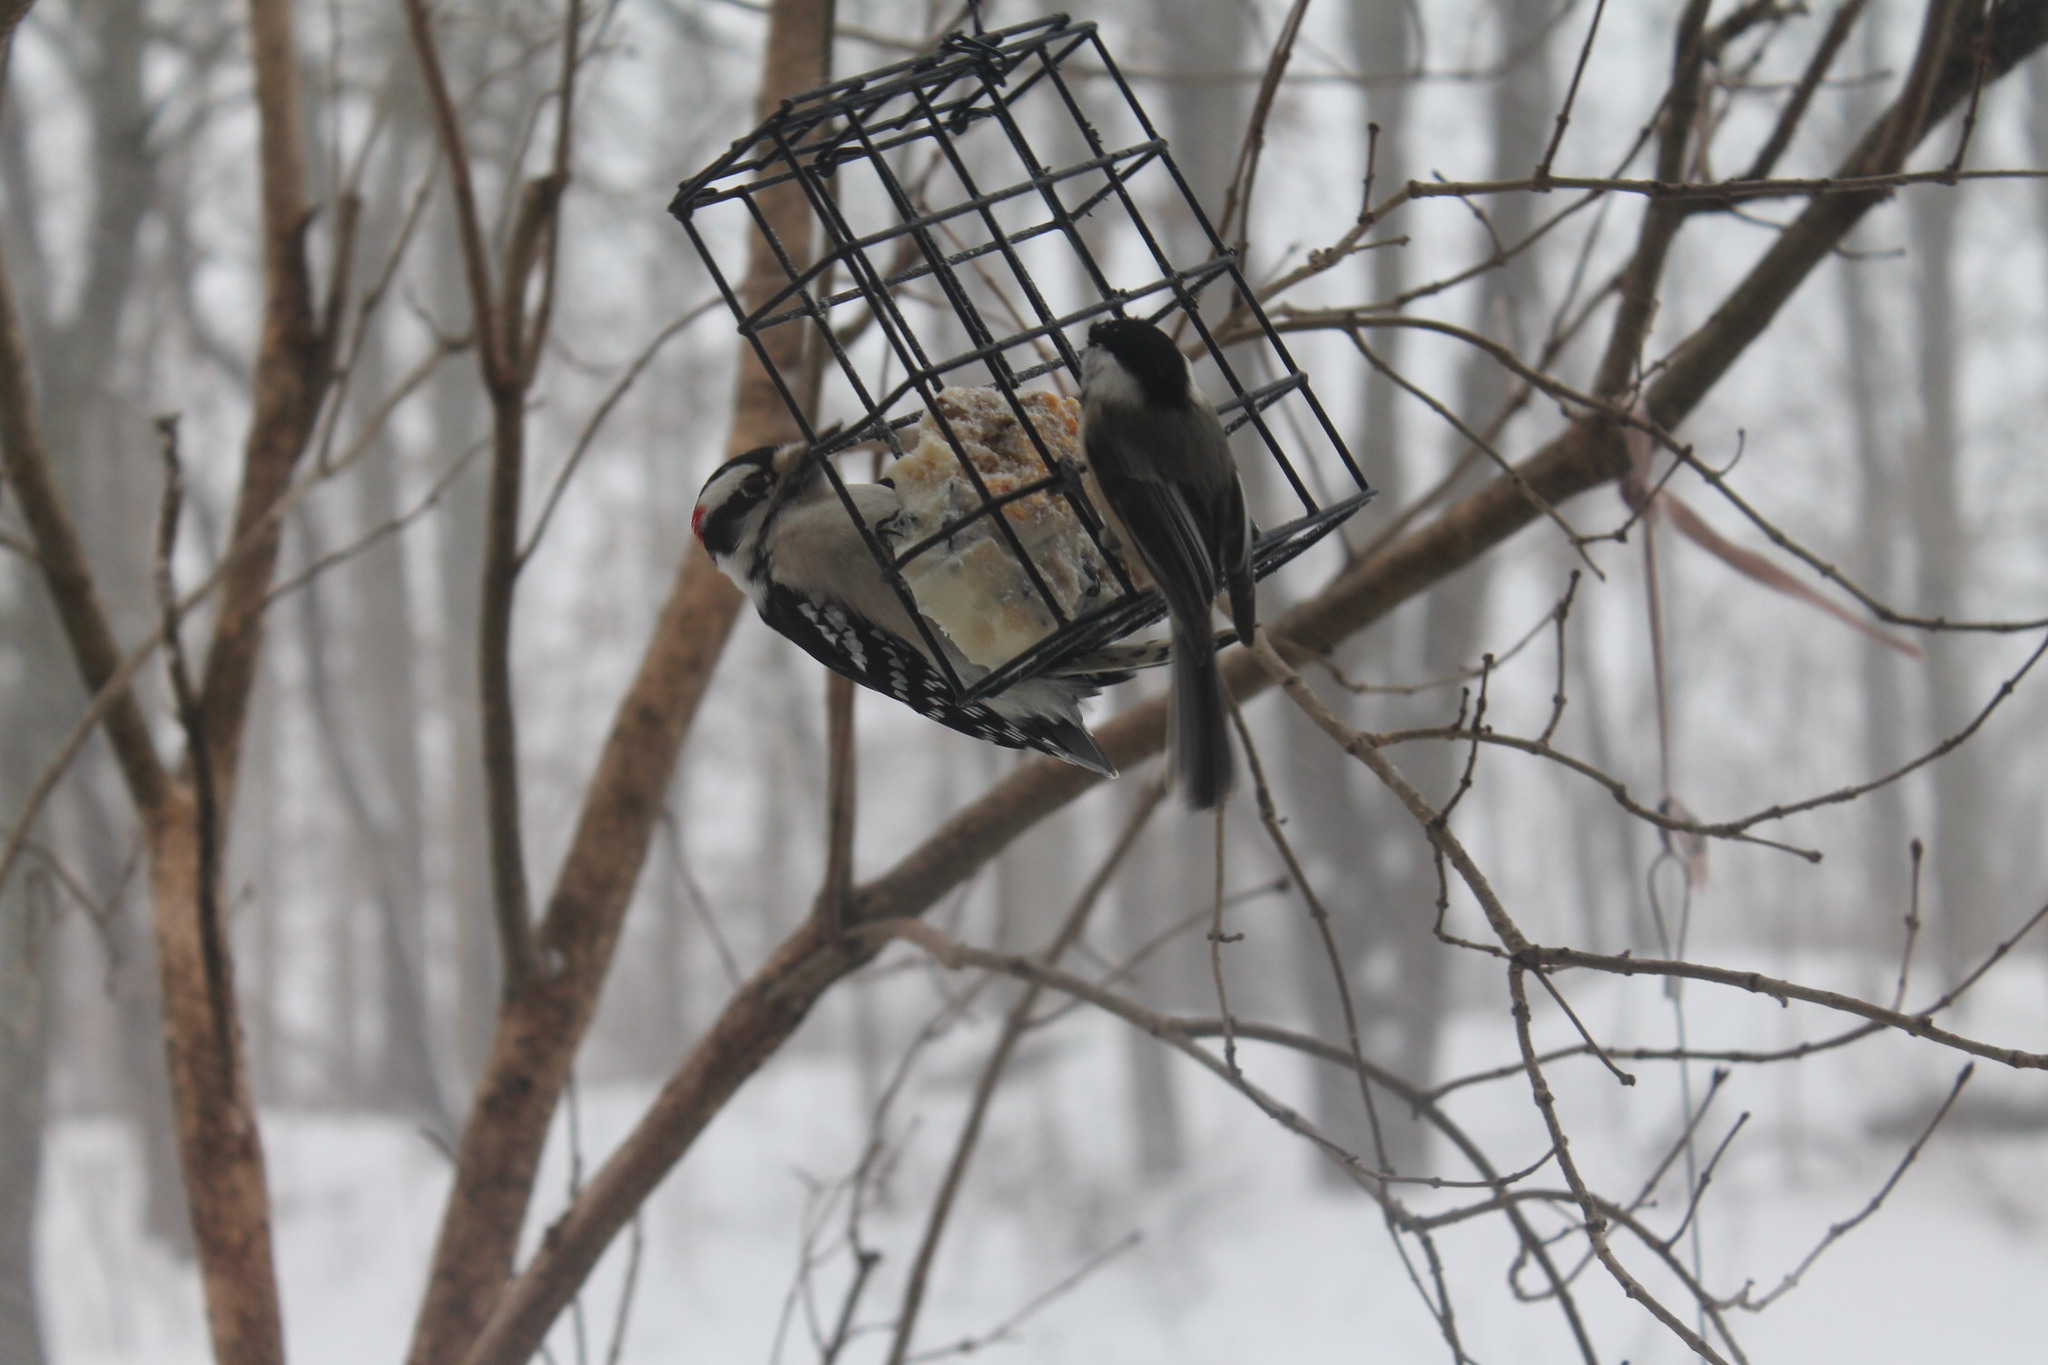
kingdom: Animalia
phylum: Chordata
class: Aves
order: Passeriformes
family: Paridae
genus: Poecile
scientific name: Poecile atricapillus
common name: Black-capped chickadee
